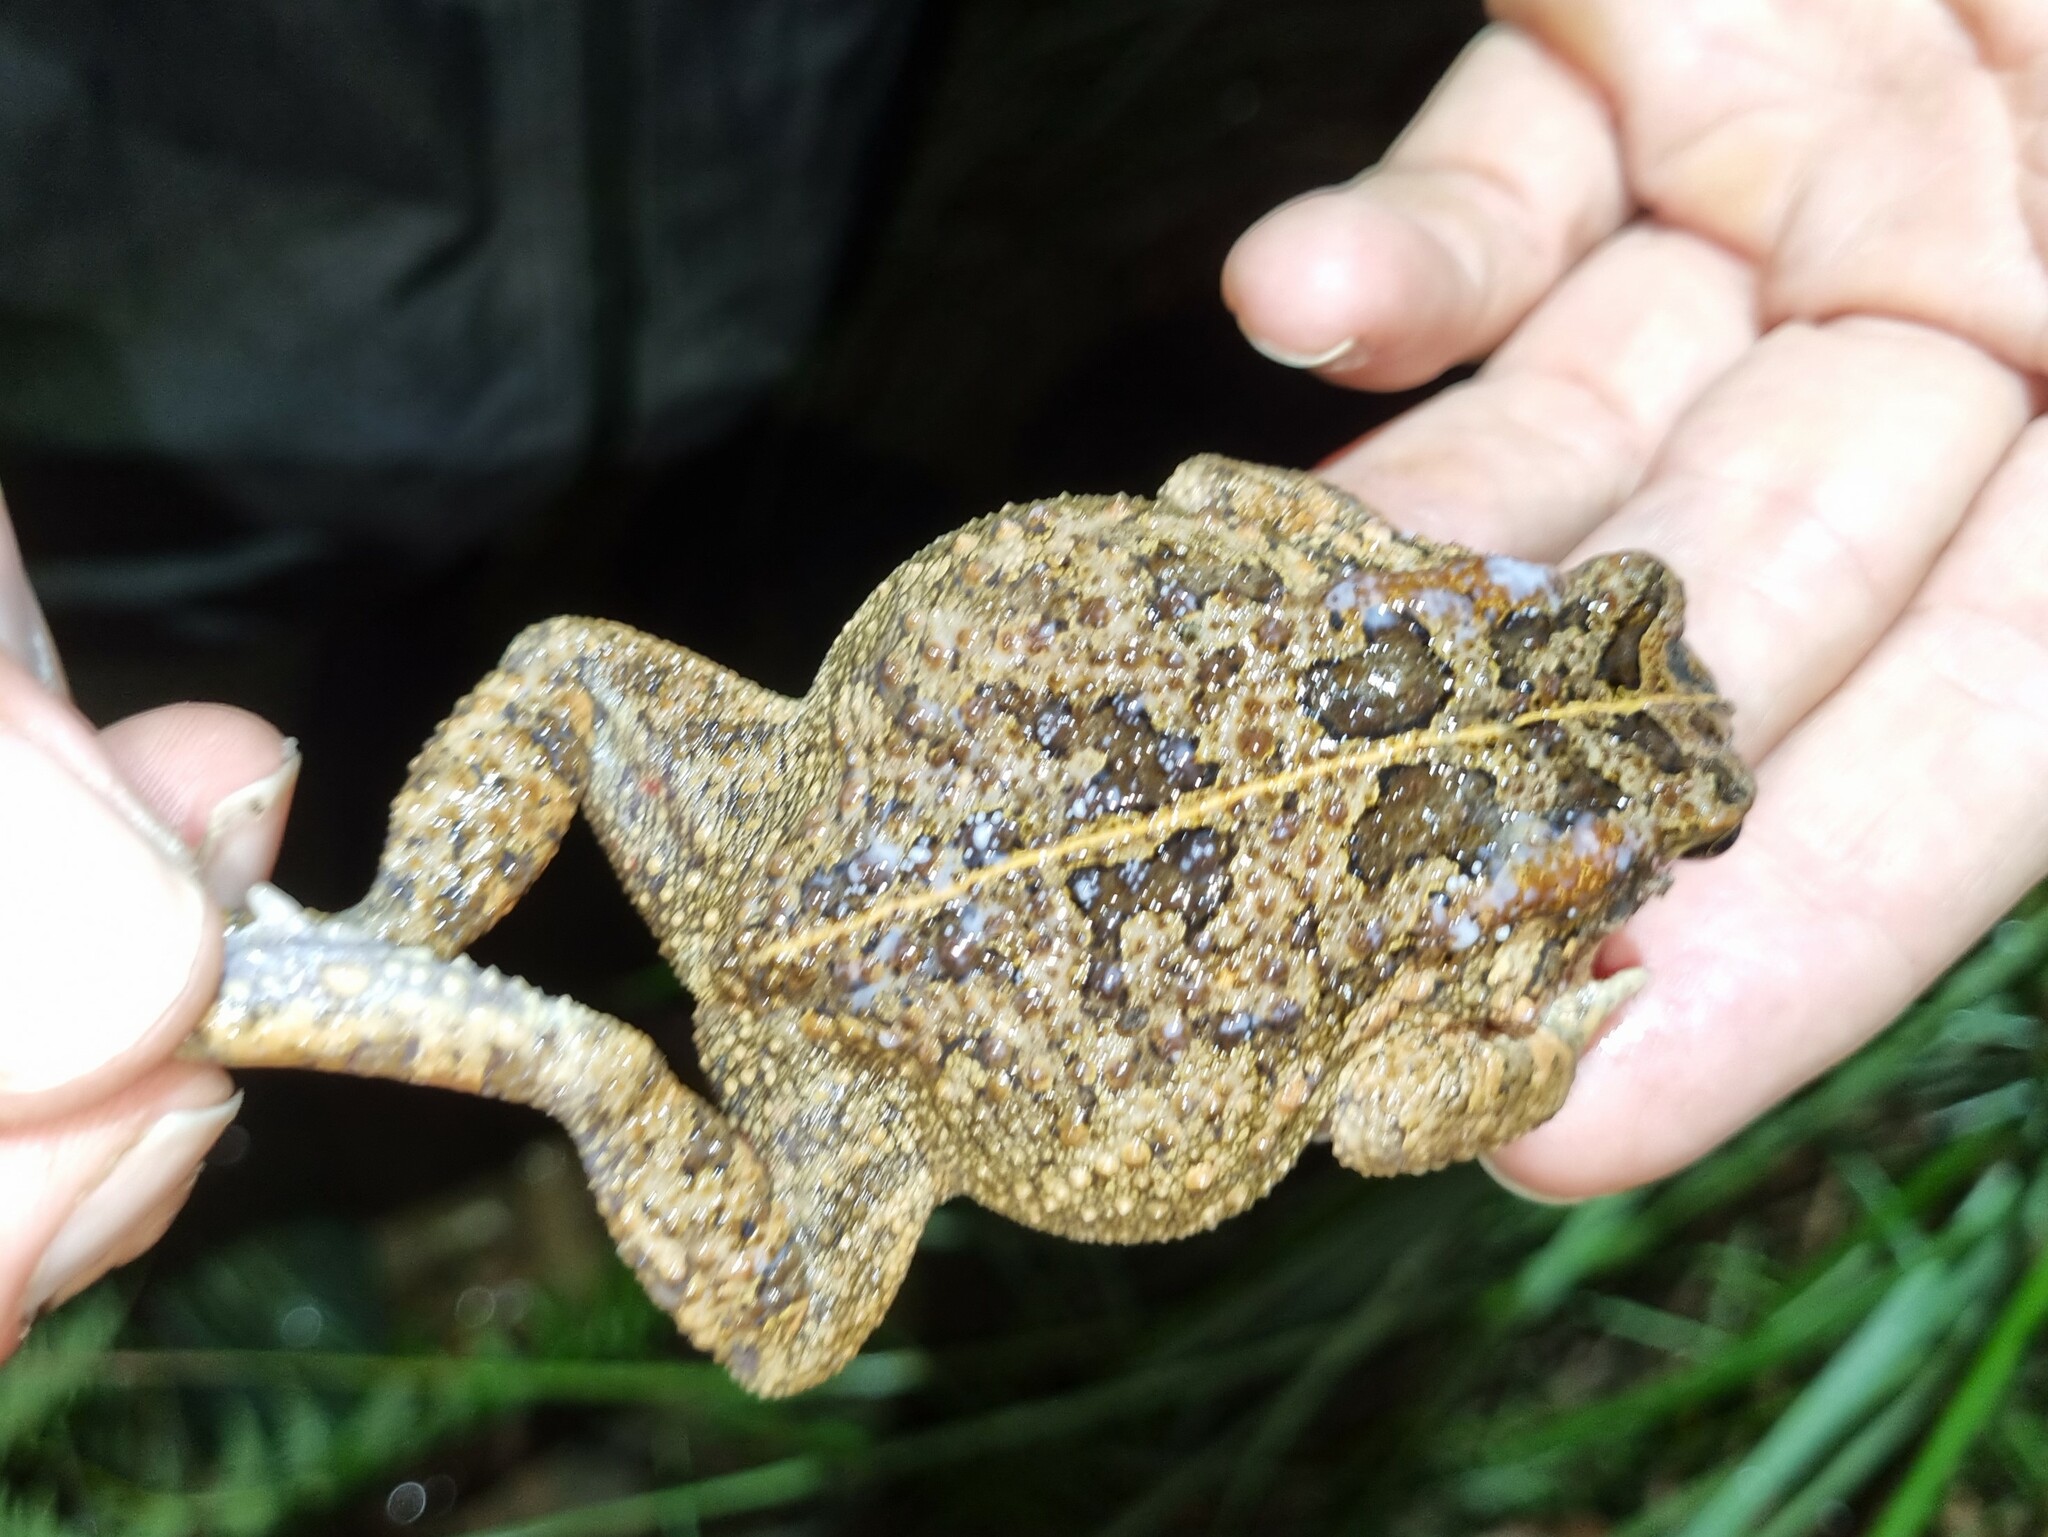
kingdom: Animalia
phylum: Chordata
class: Amphibia
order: Anura
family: Bufonidae
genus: Sclerophrys
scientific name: Sclerophrys gutturalis
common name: African common toad
